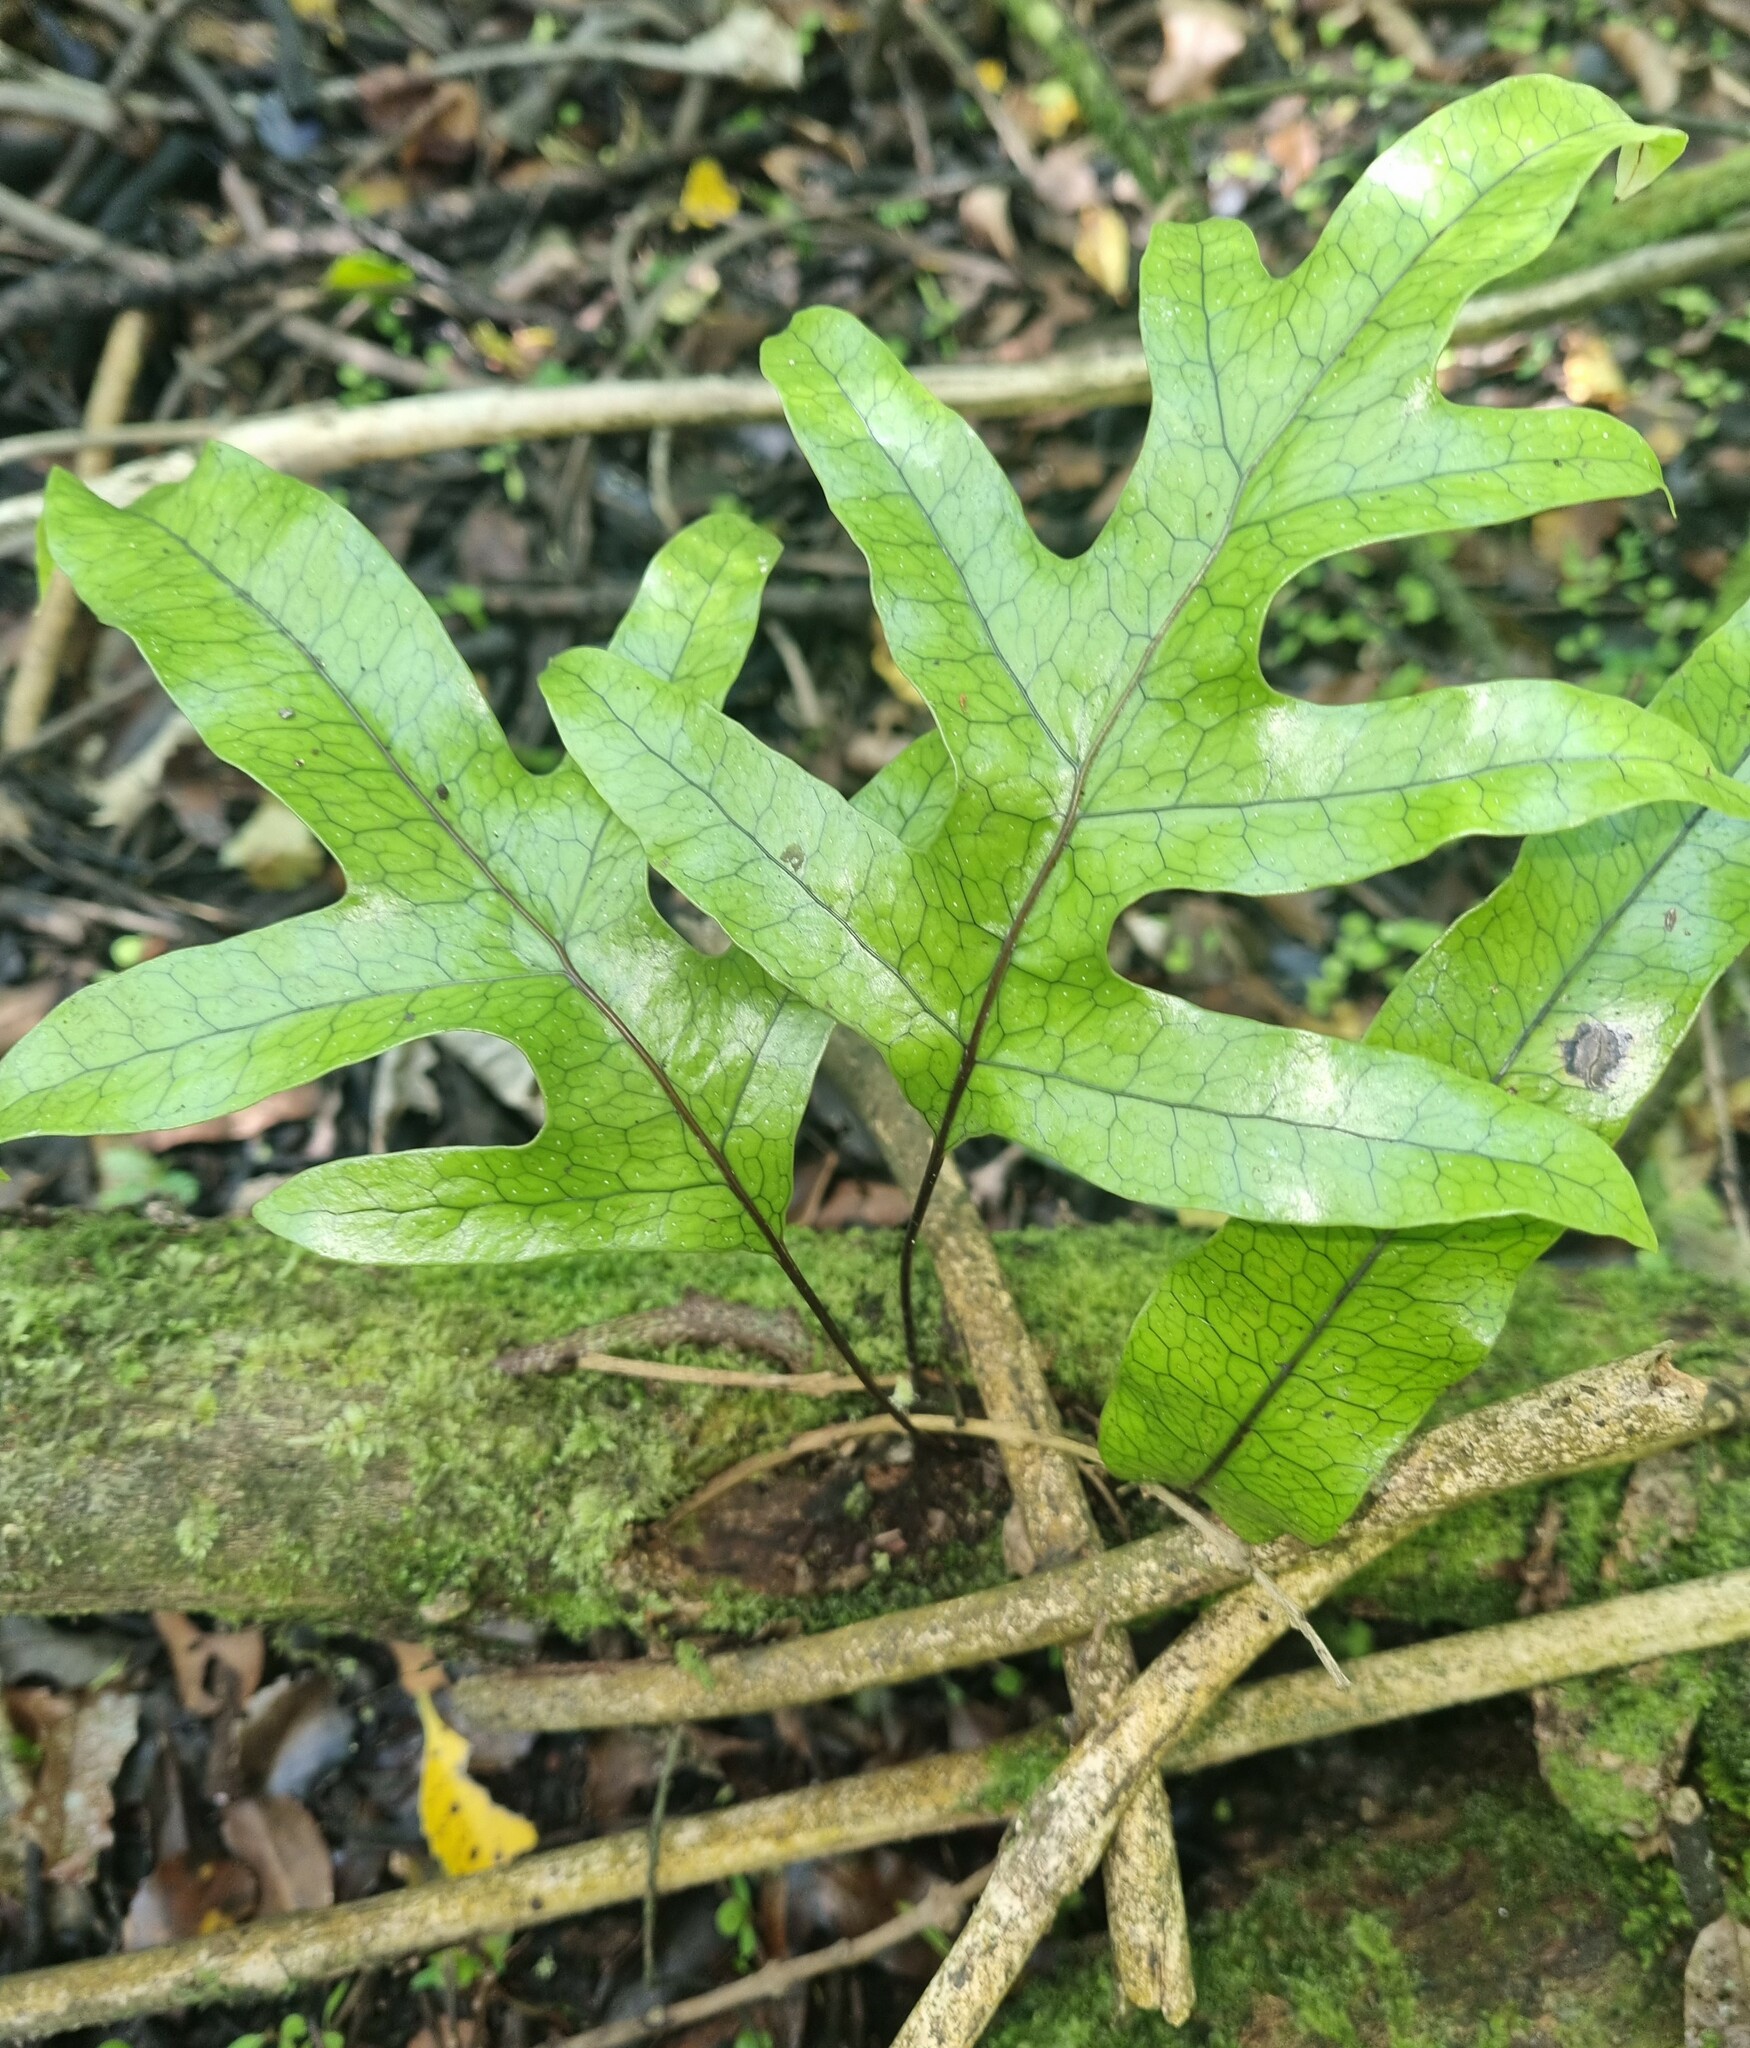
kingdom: Plantae
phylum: Tracheophyta
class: Polypodiopsida
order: Polypodiales
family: Polypodiaceae
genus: Lecanopteris
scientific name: Lecanopteris pustulata
